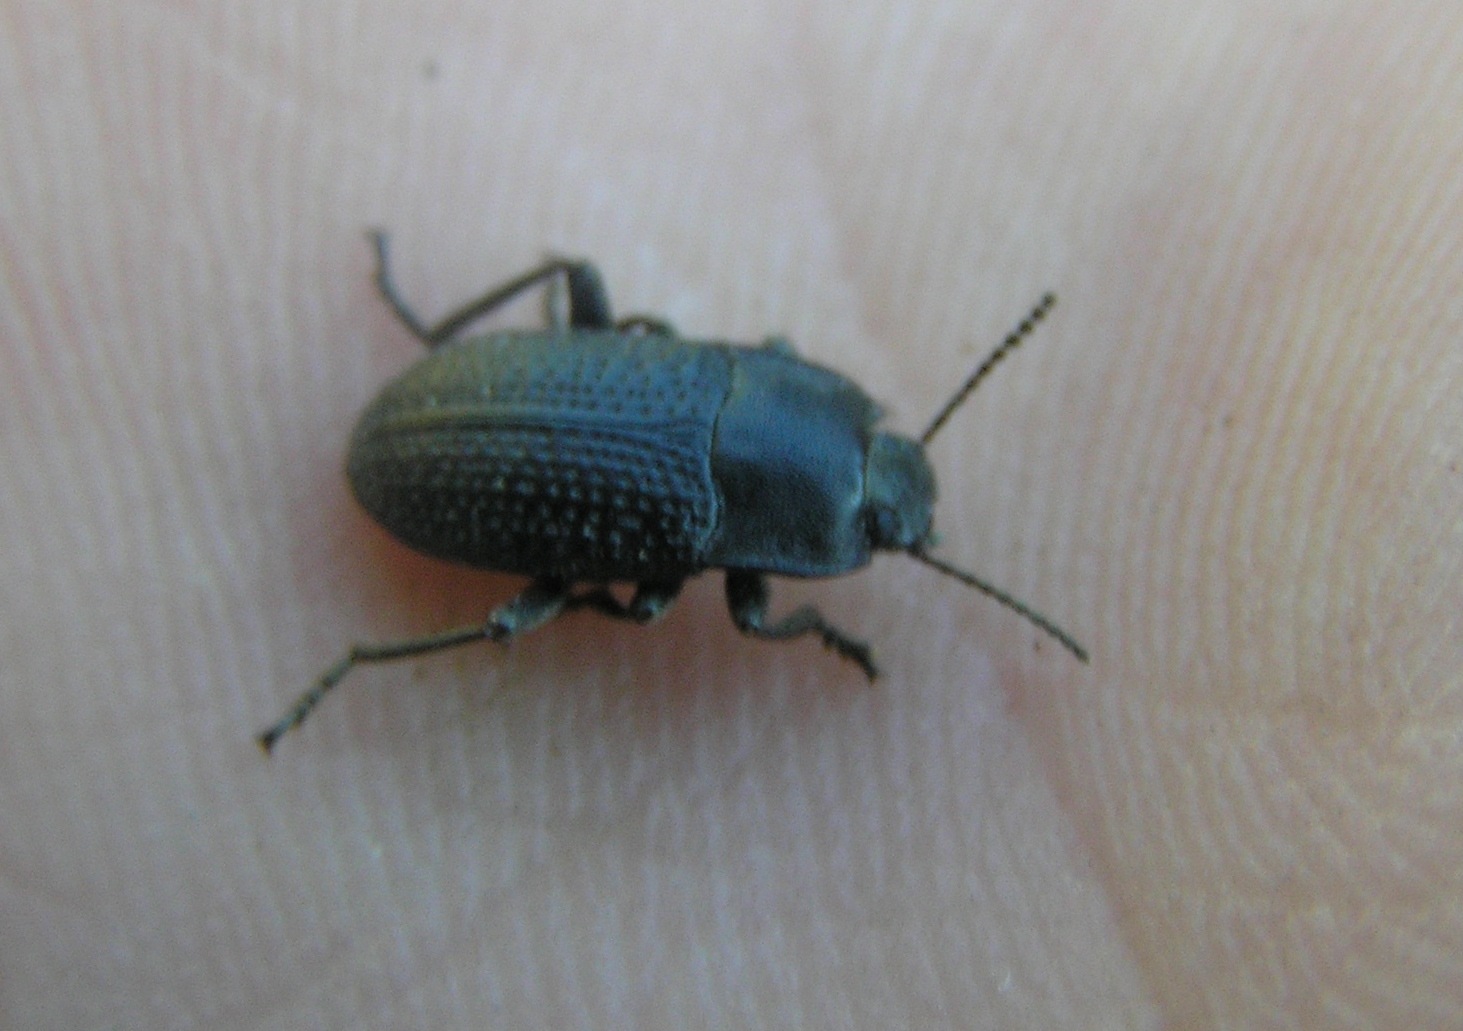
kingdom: Animalia
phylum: Arthropoda
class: Insecta
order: Coleoptera
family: Tenebrionidae
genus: Asiopus
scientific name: Asiopus
